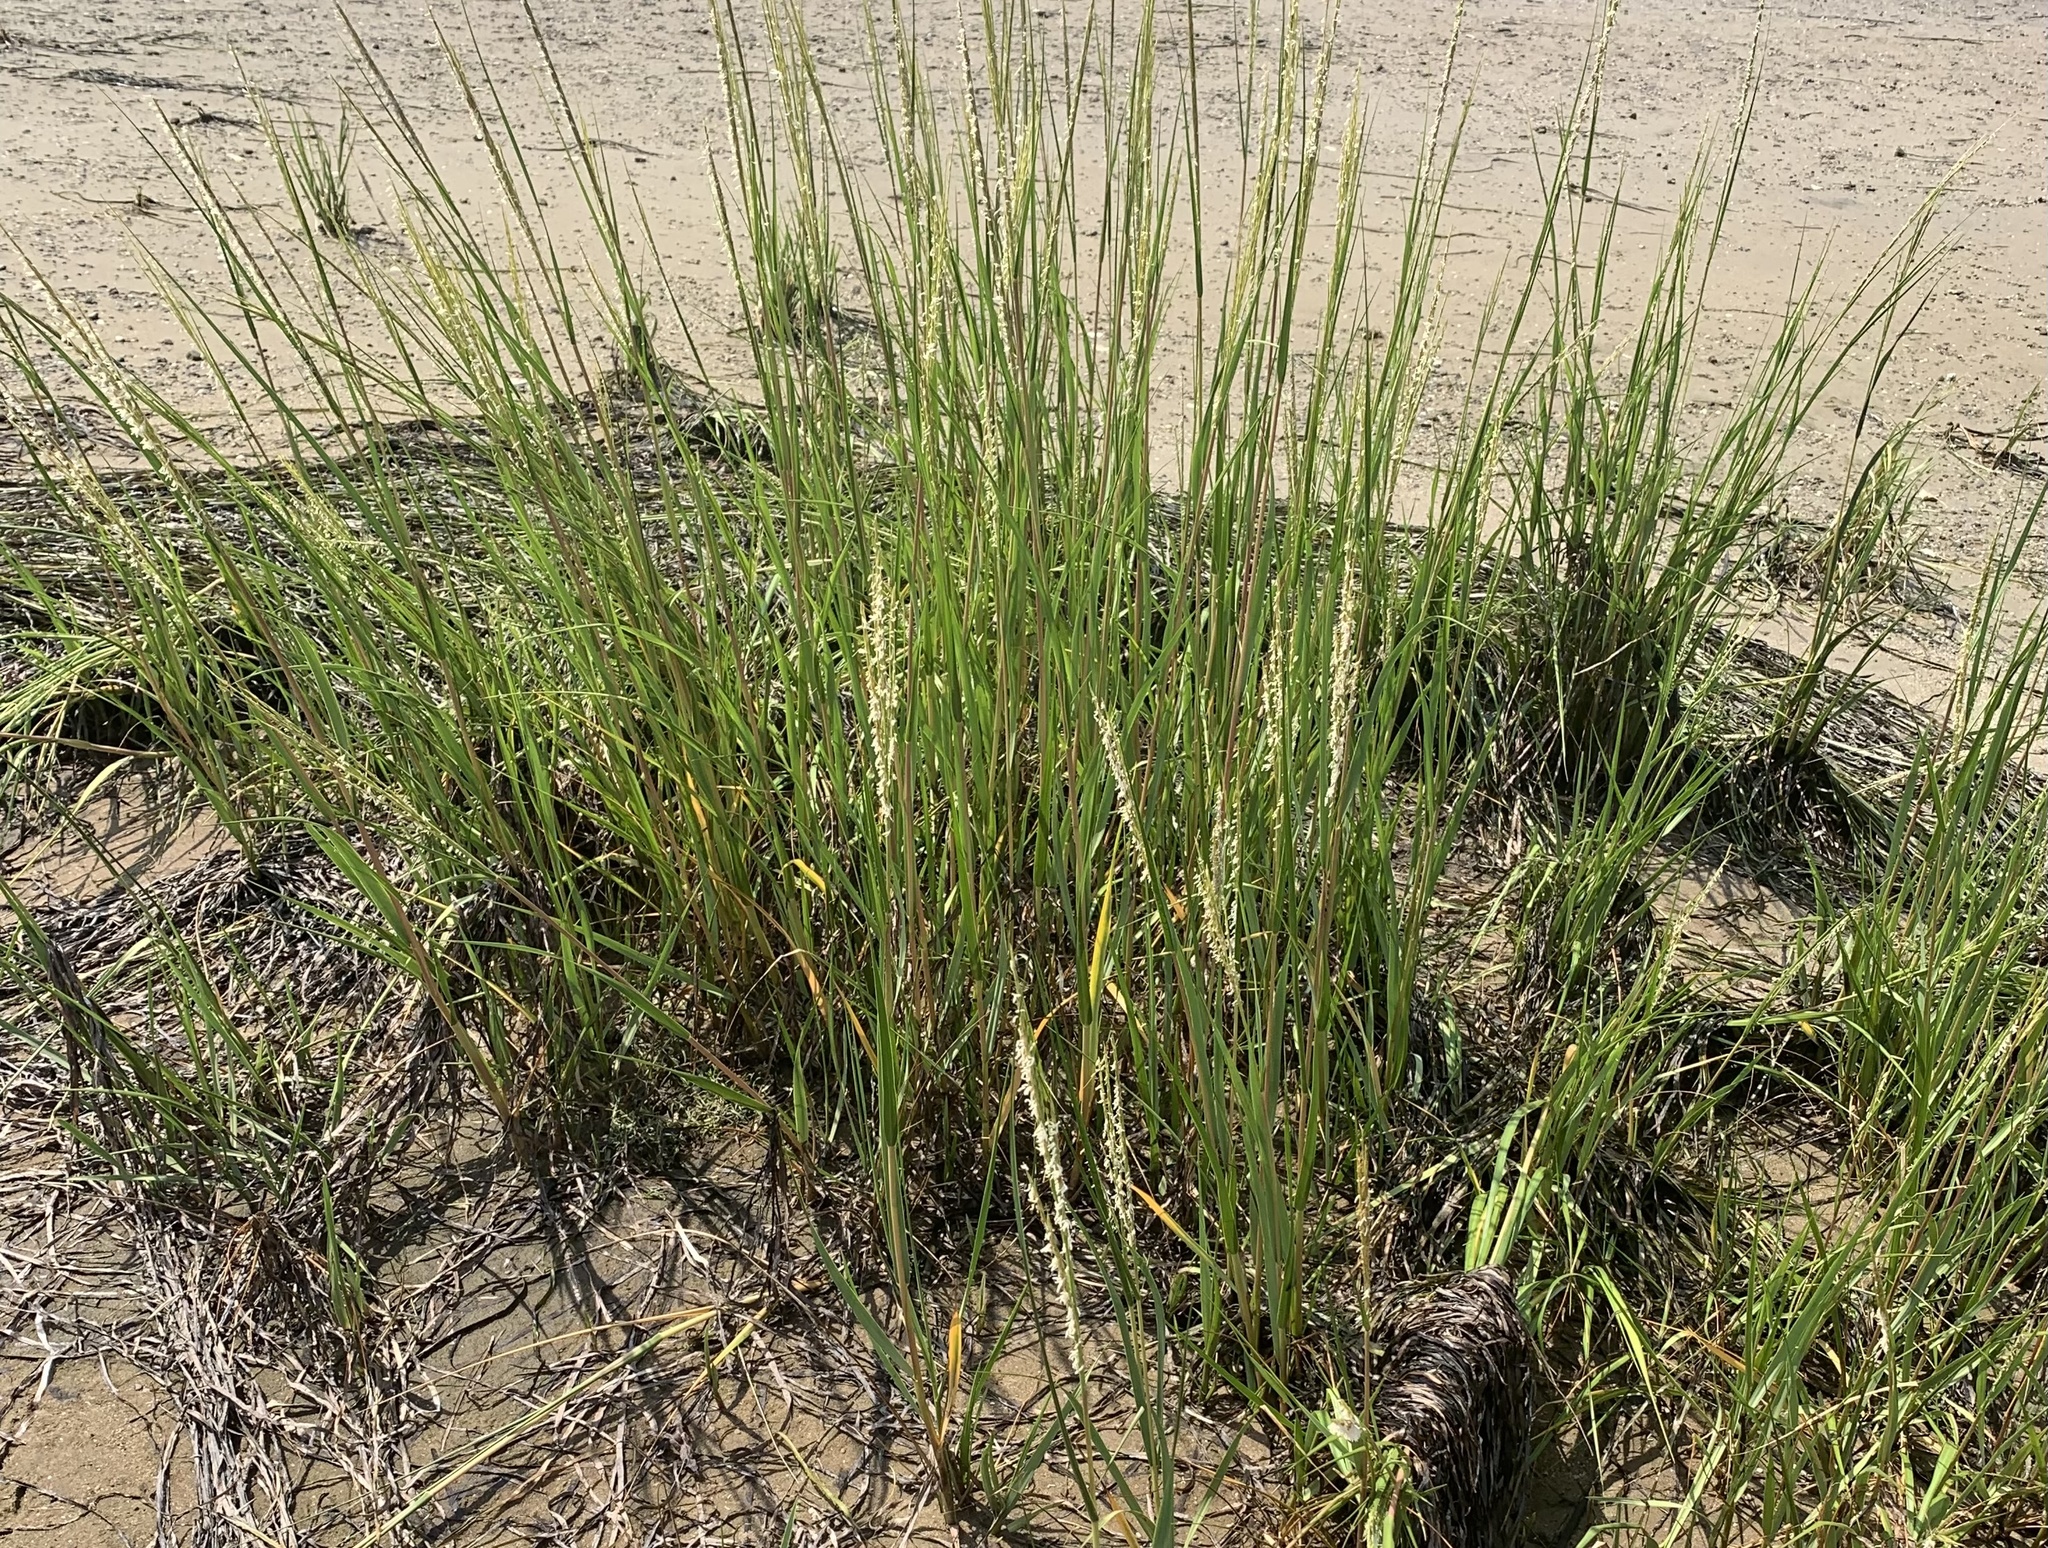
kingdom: Plantae
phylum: Tracheophyta
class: Liliopsida
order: Poales
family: Poaceae
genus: Sporobolus
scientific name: Sporobolus alterniflorus
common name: Atlantic cordgrass
